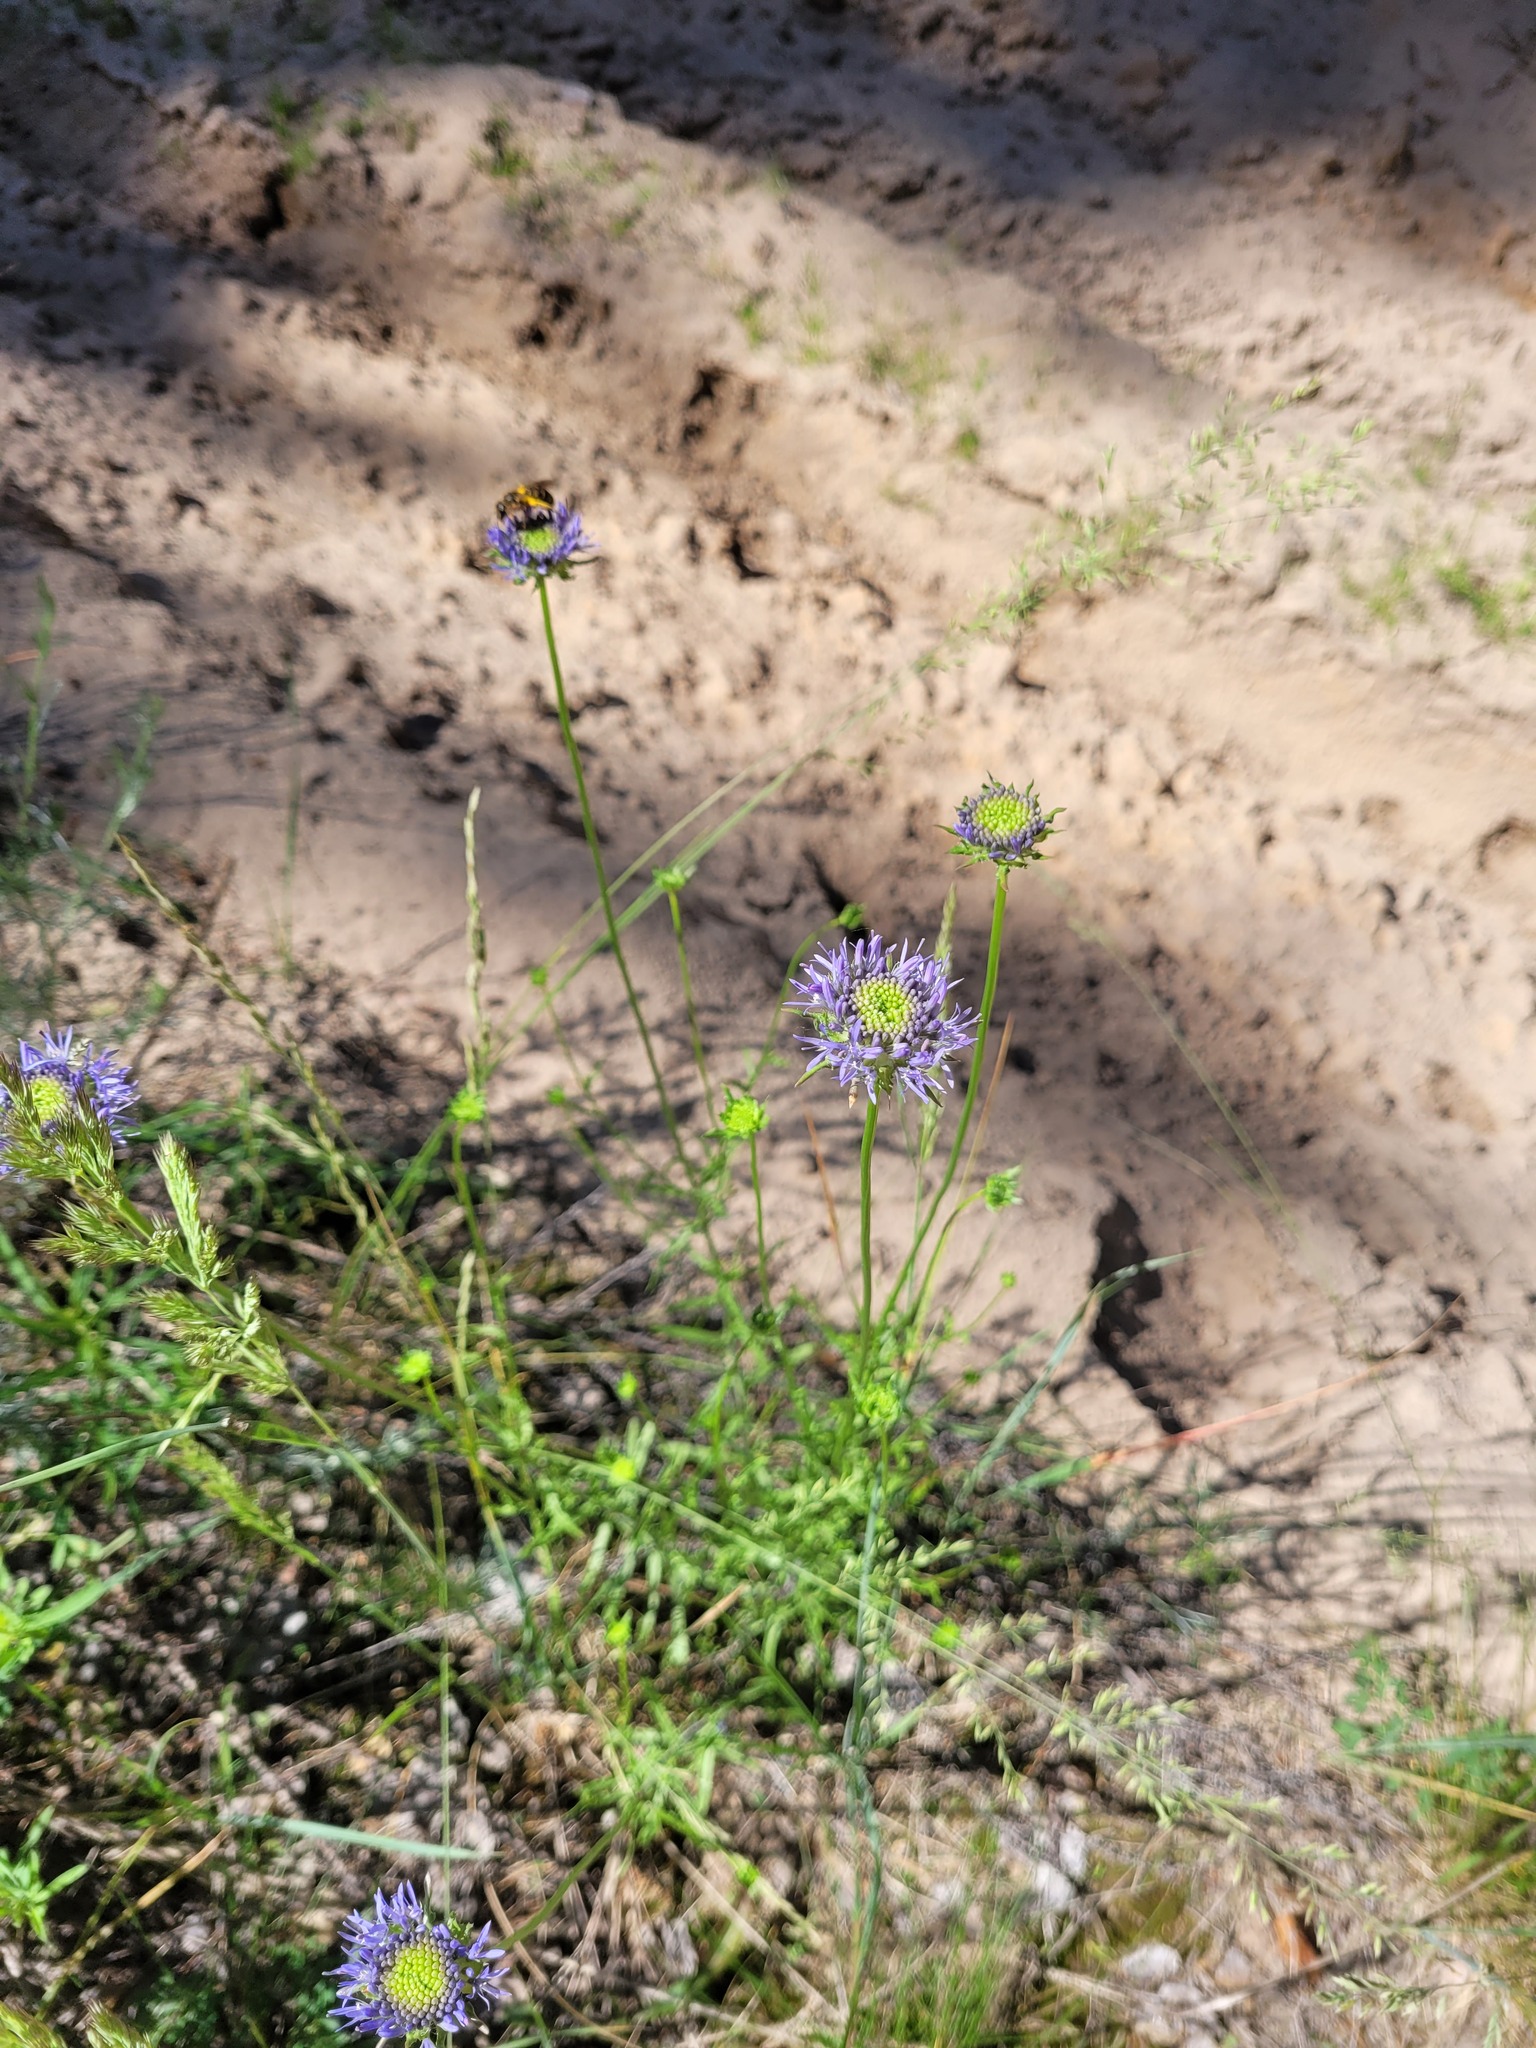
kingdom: Plantae
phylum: Tracheophyta
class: Magnoliopsida
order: Asterales
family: Campanulaceae
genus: Jasione
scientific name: Jasione montana
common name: Sheep's-bit
